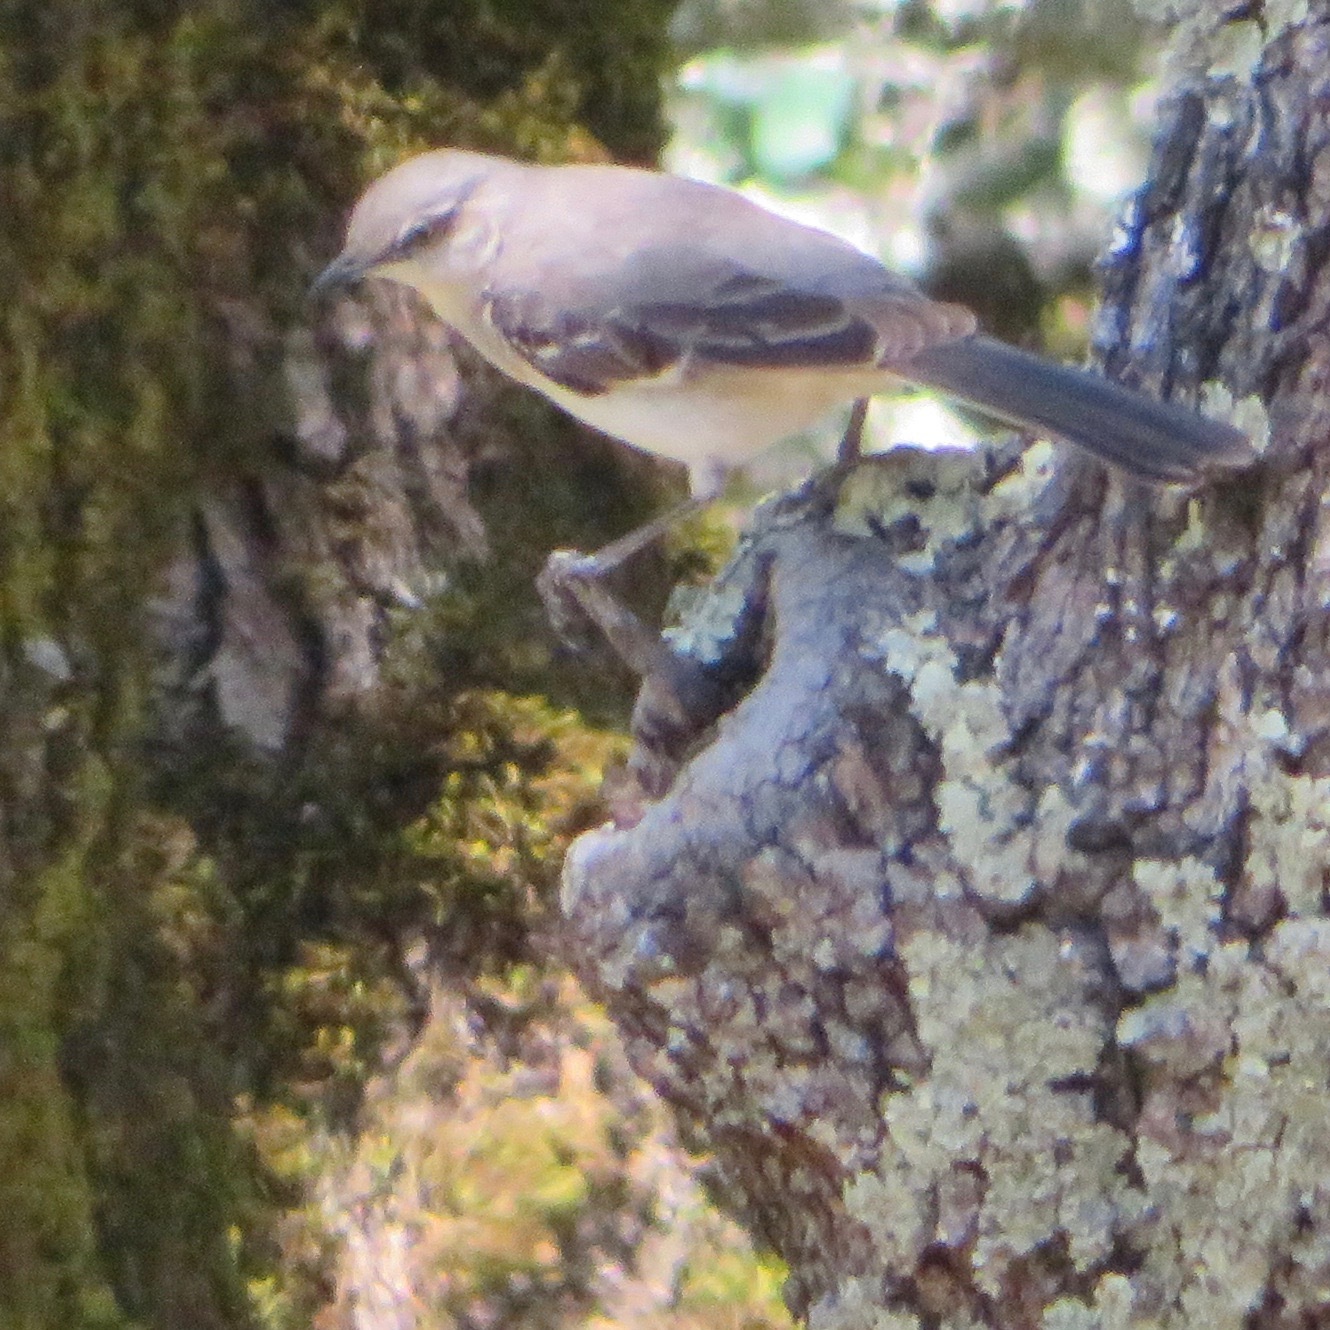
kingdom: Animalia
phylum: Chordata
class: Aves
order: Passeriformes
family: Mimidae
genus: Mimus
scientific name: Mimus polyglottos
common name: Northern mockingbird
